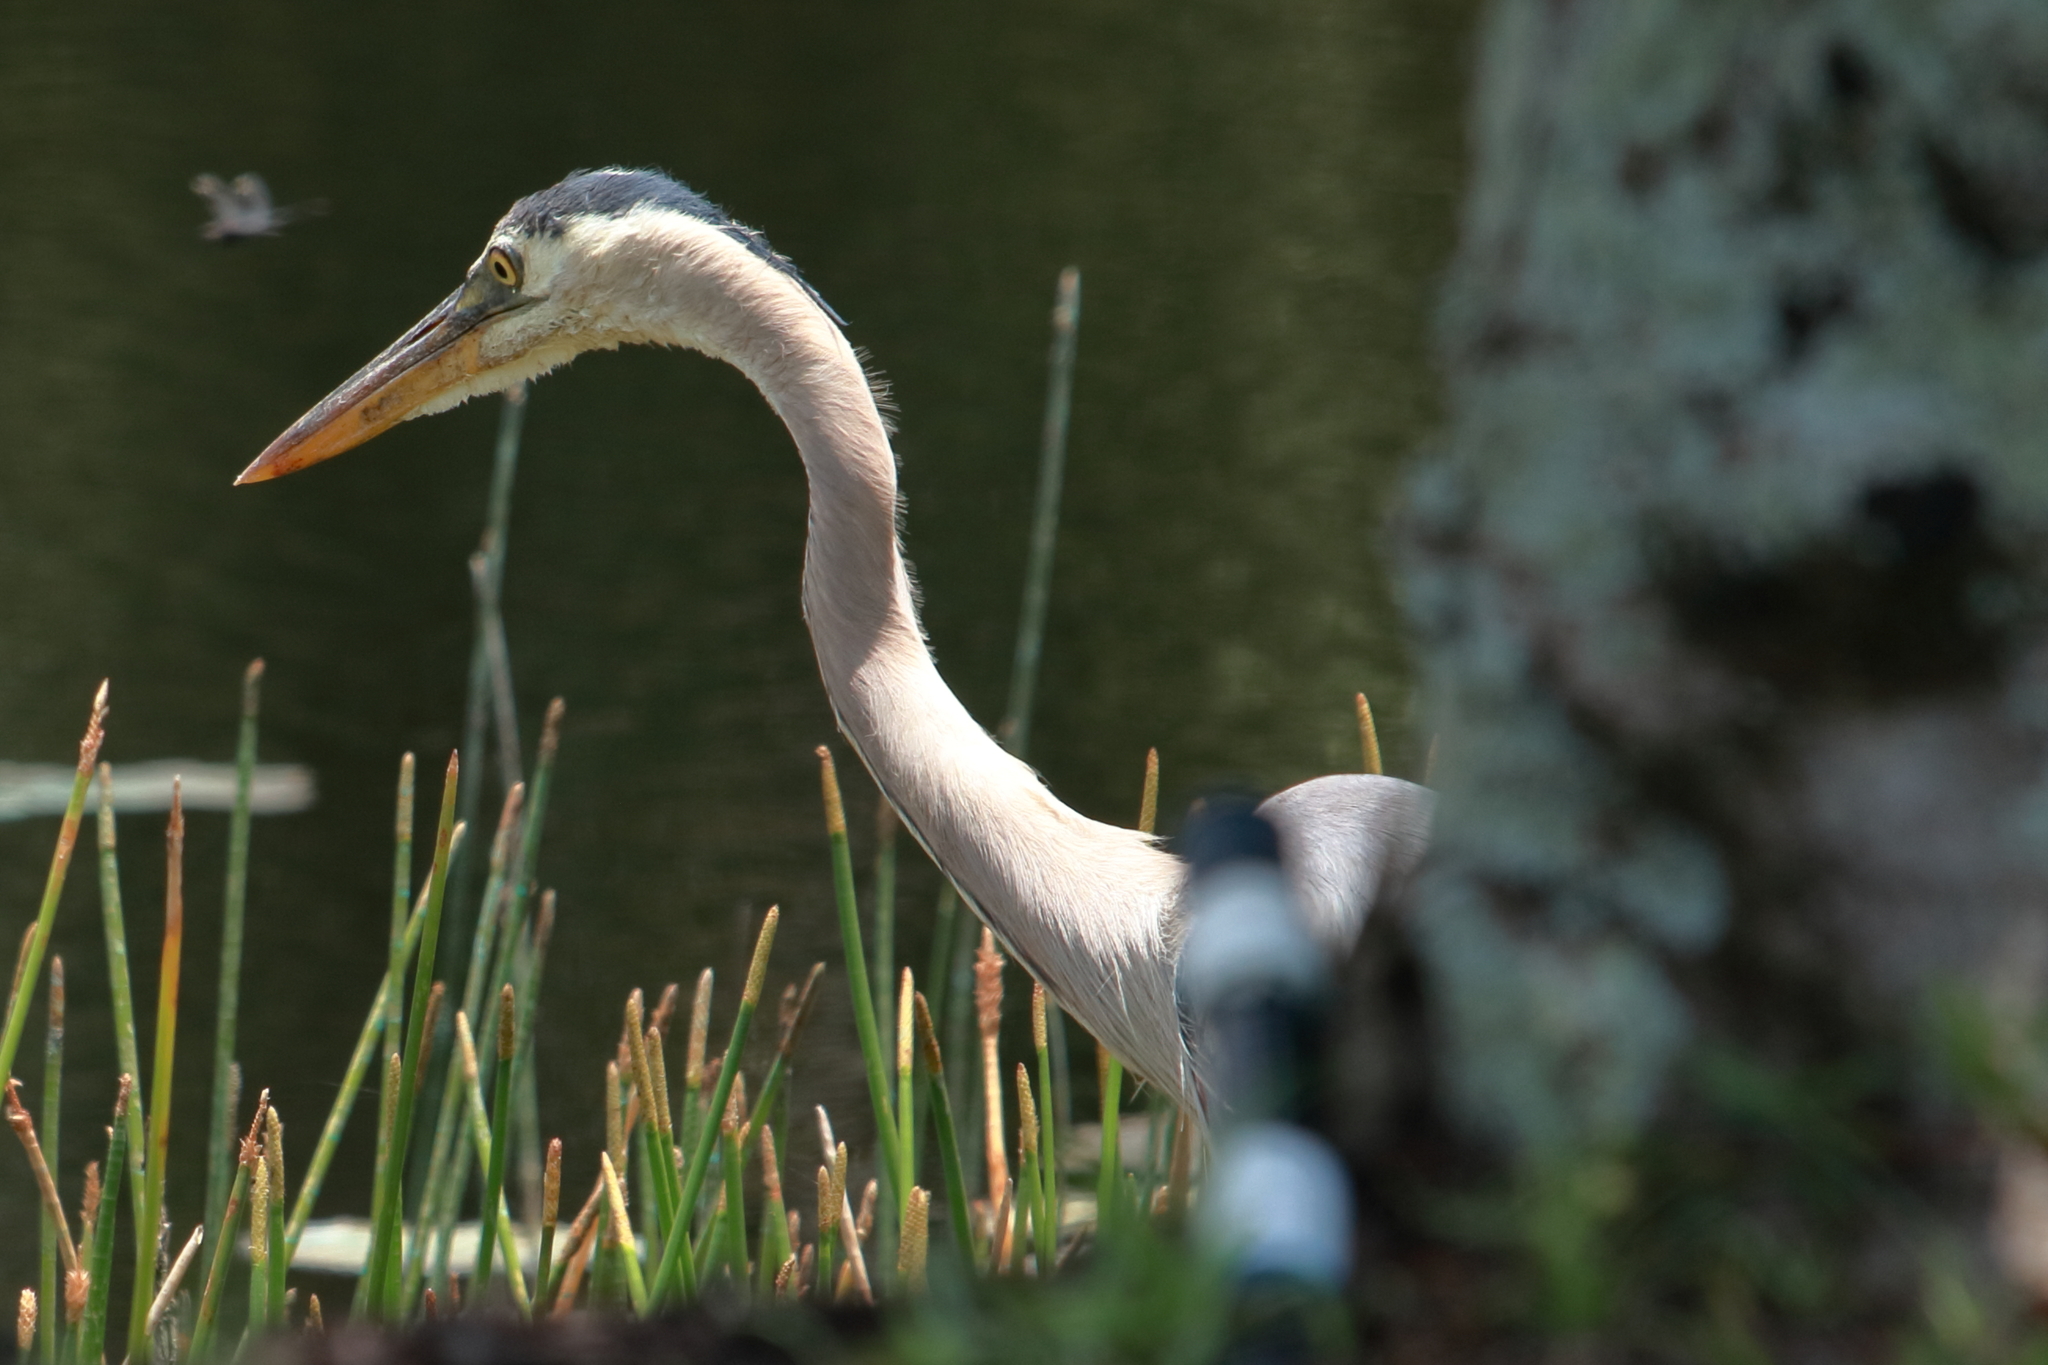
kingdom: Animalia
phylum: Chordata
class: Aves
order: Pelecaniformes
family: Ardeidae
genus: Ardea
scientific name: Ardea herodias
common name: Great blue heron
